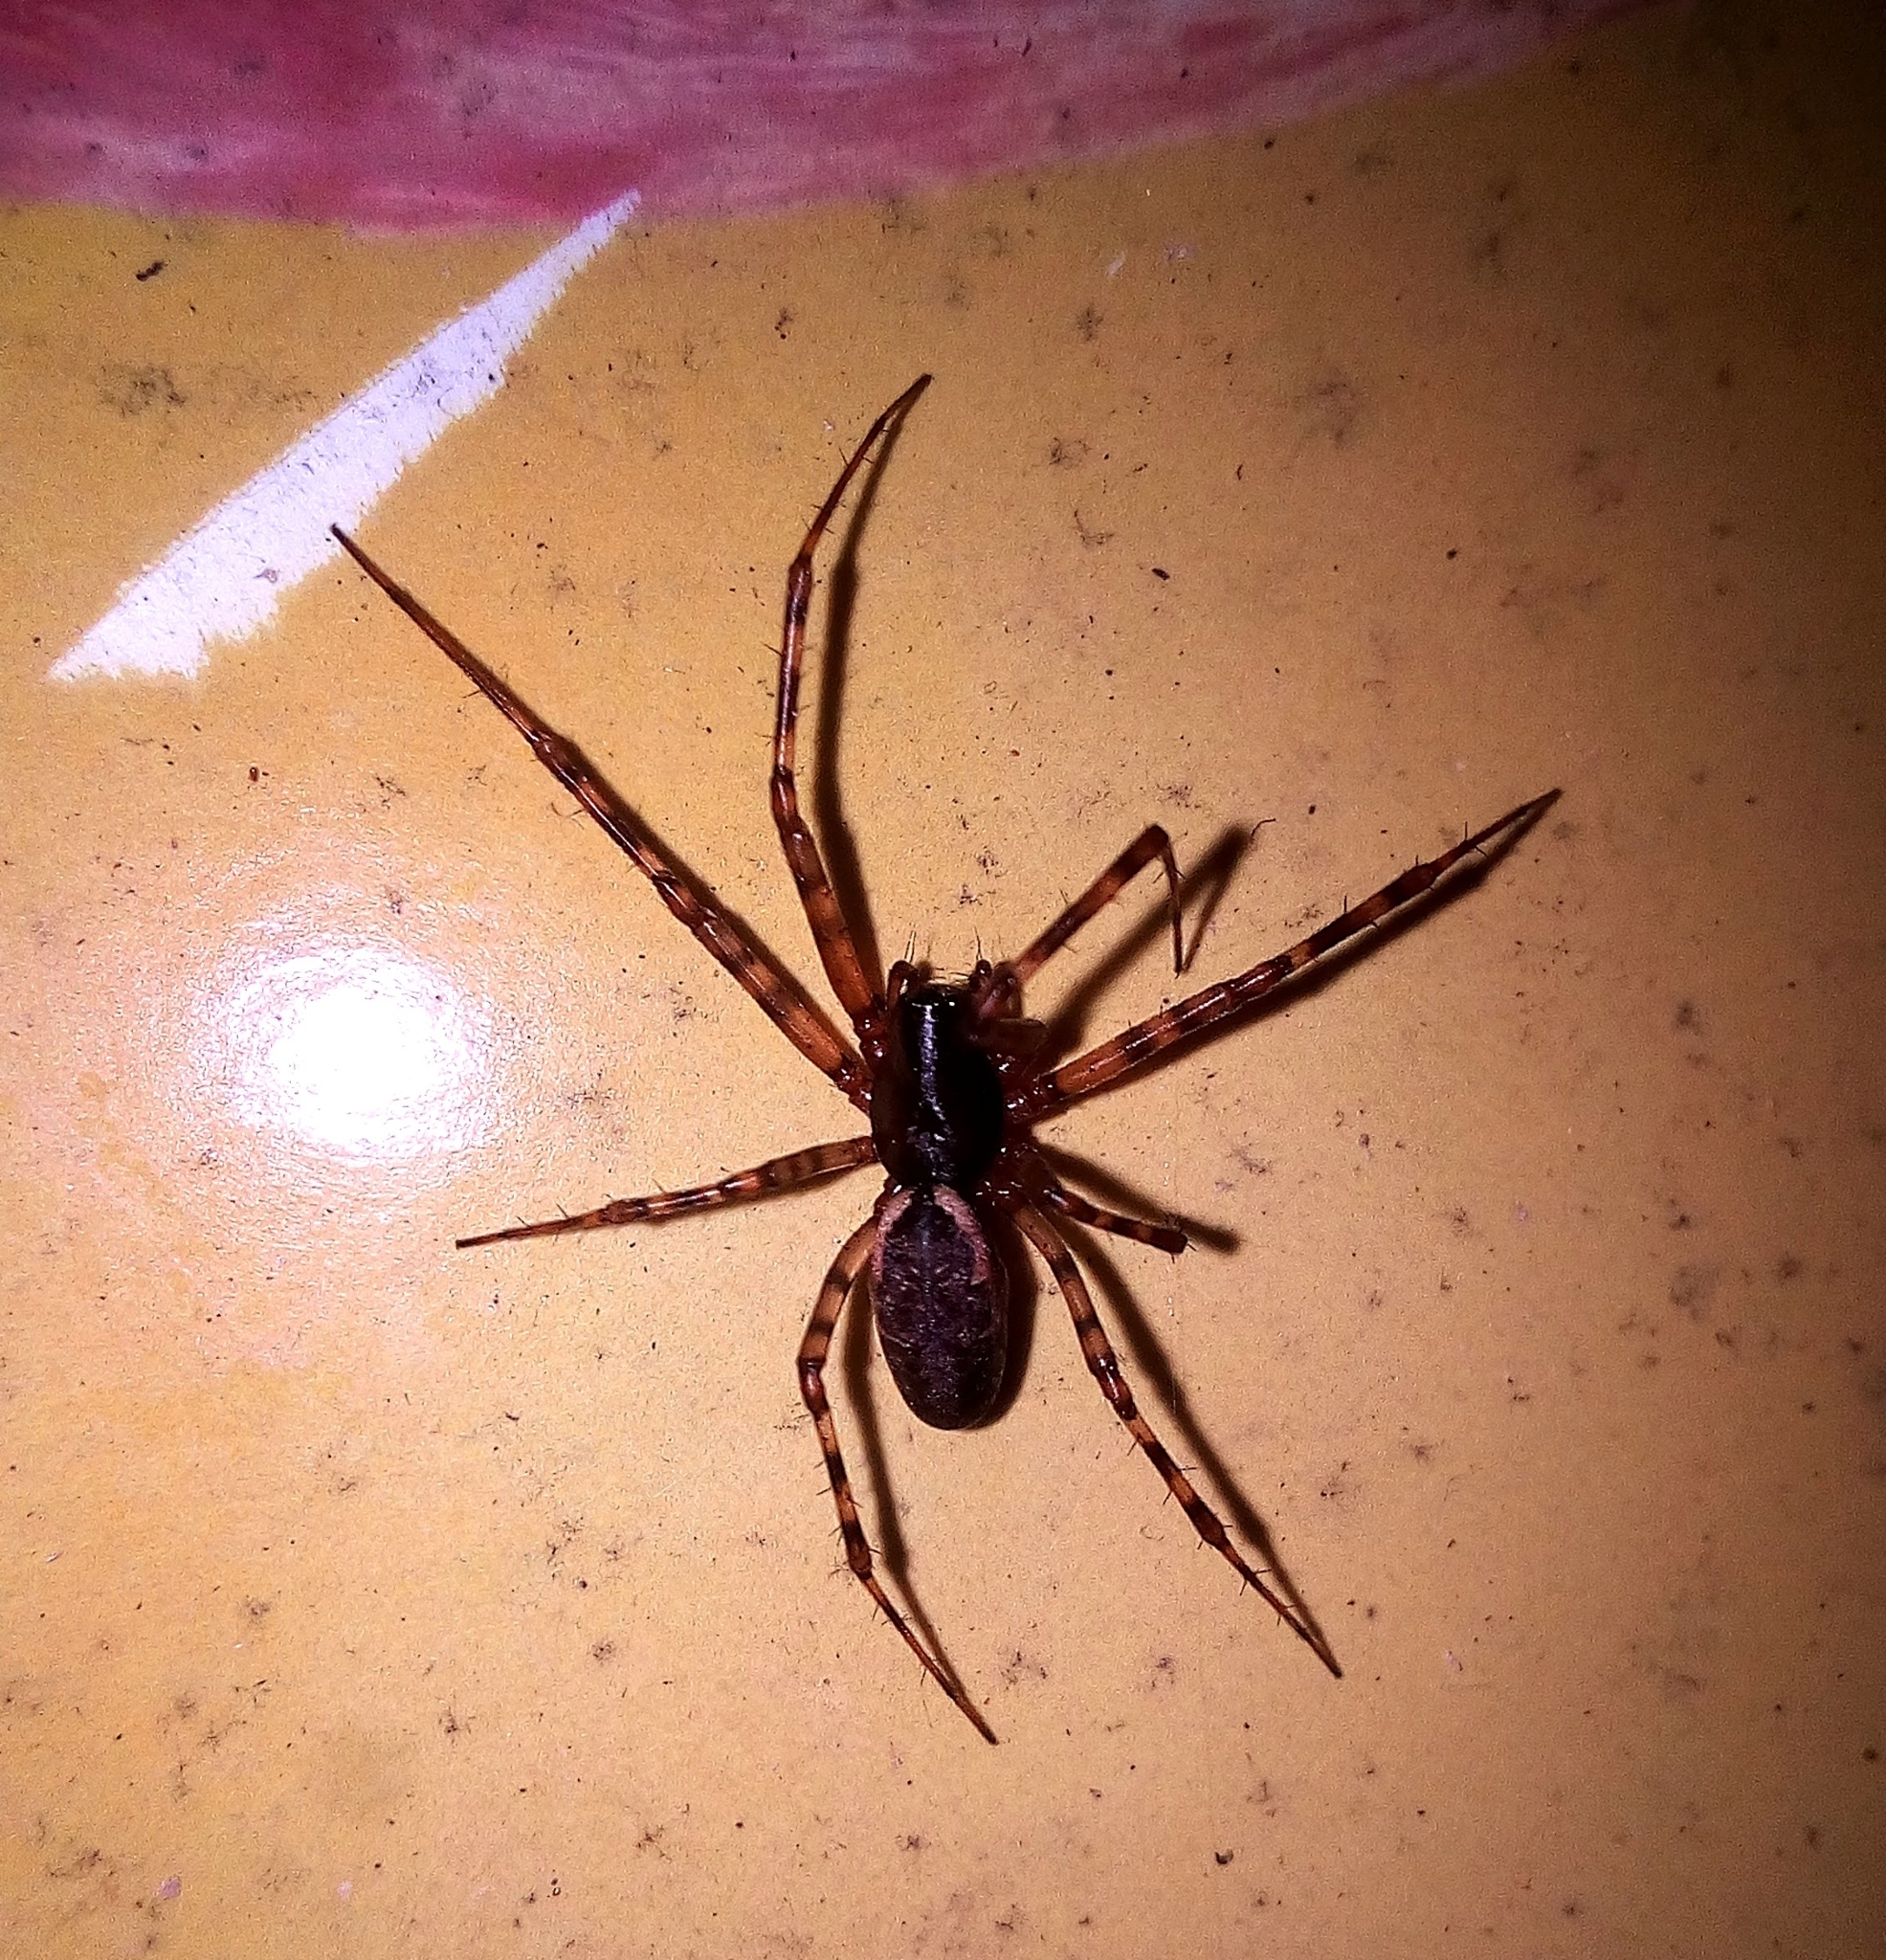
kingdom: Animalia
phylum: Arthropoda
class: Arachnida
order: Araneae
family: Linyphiidae
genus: Neriene
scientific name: Neriene montana
